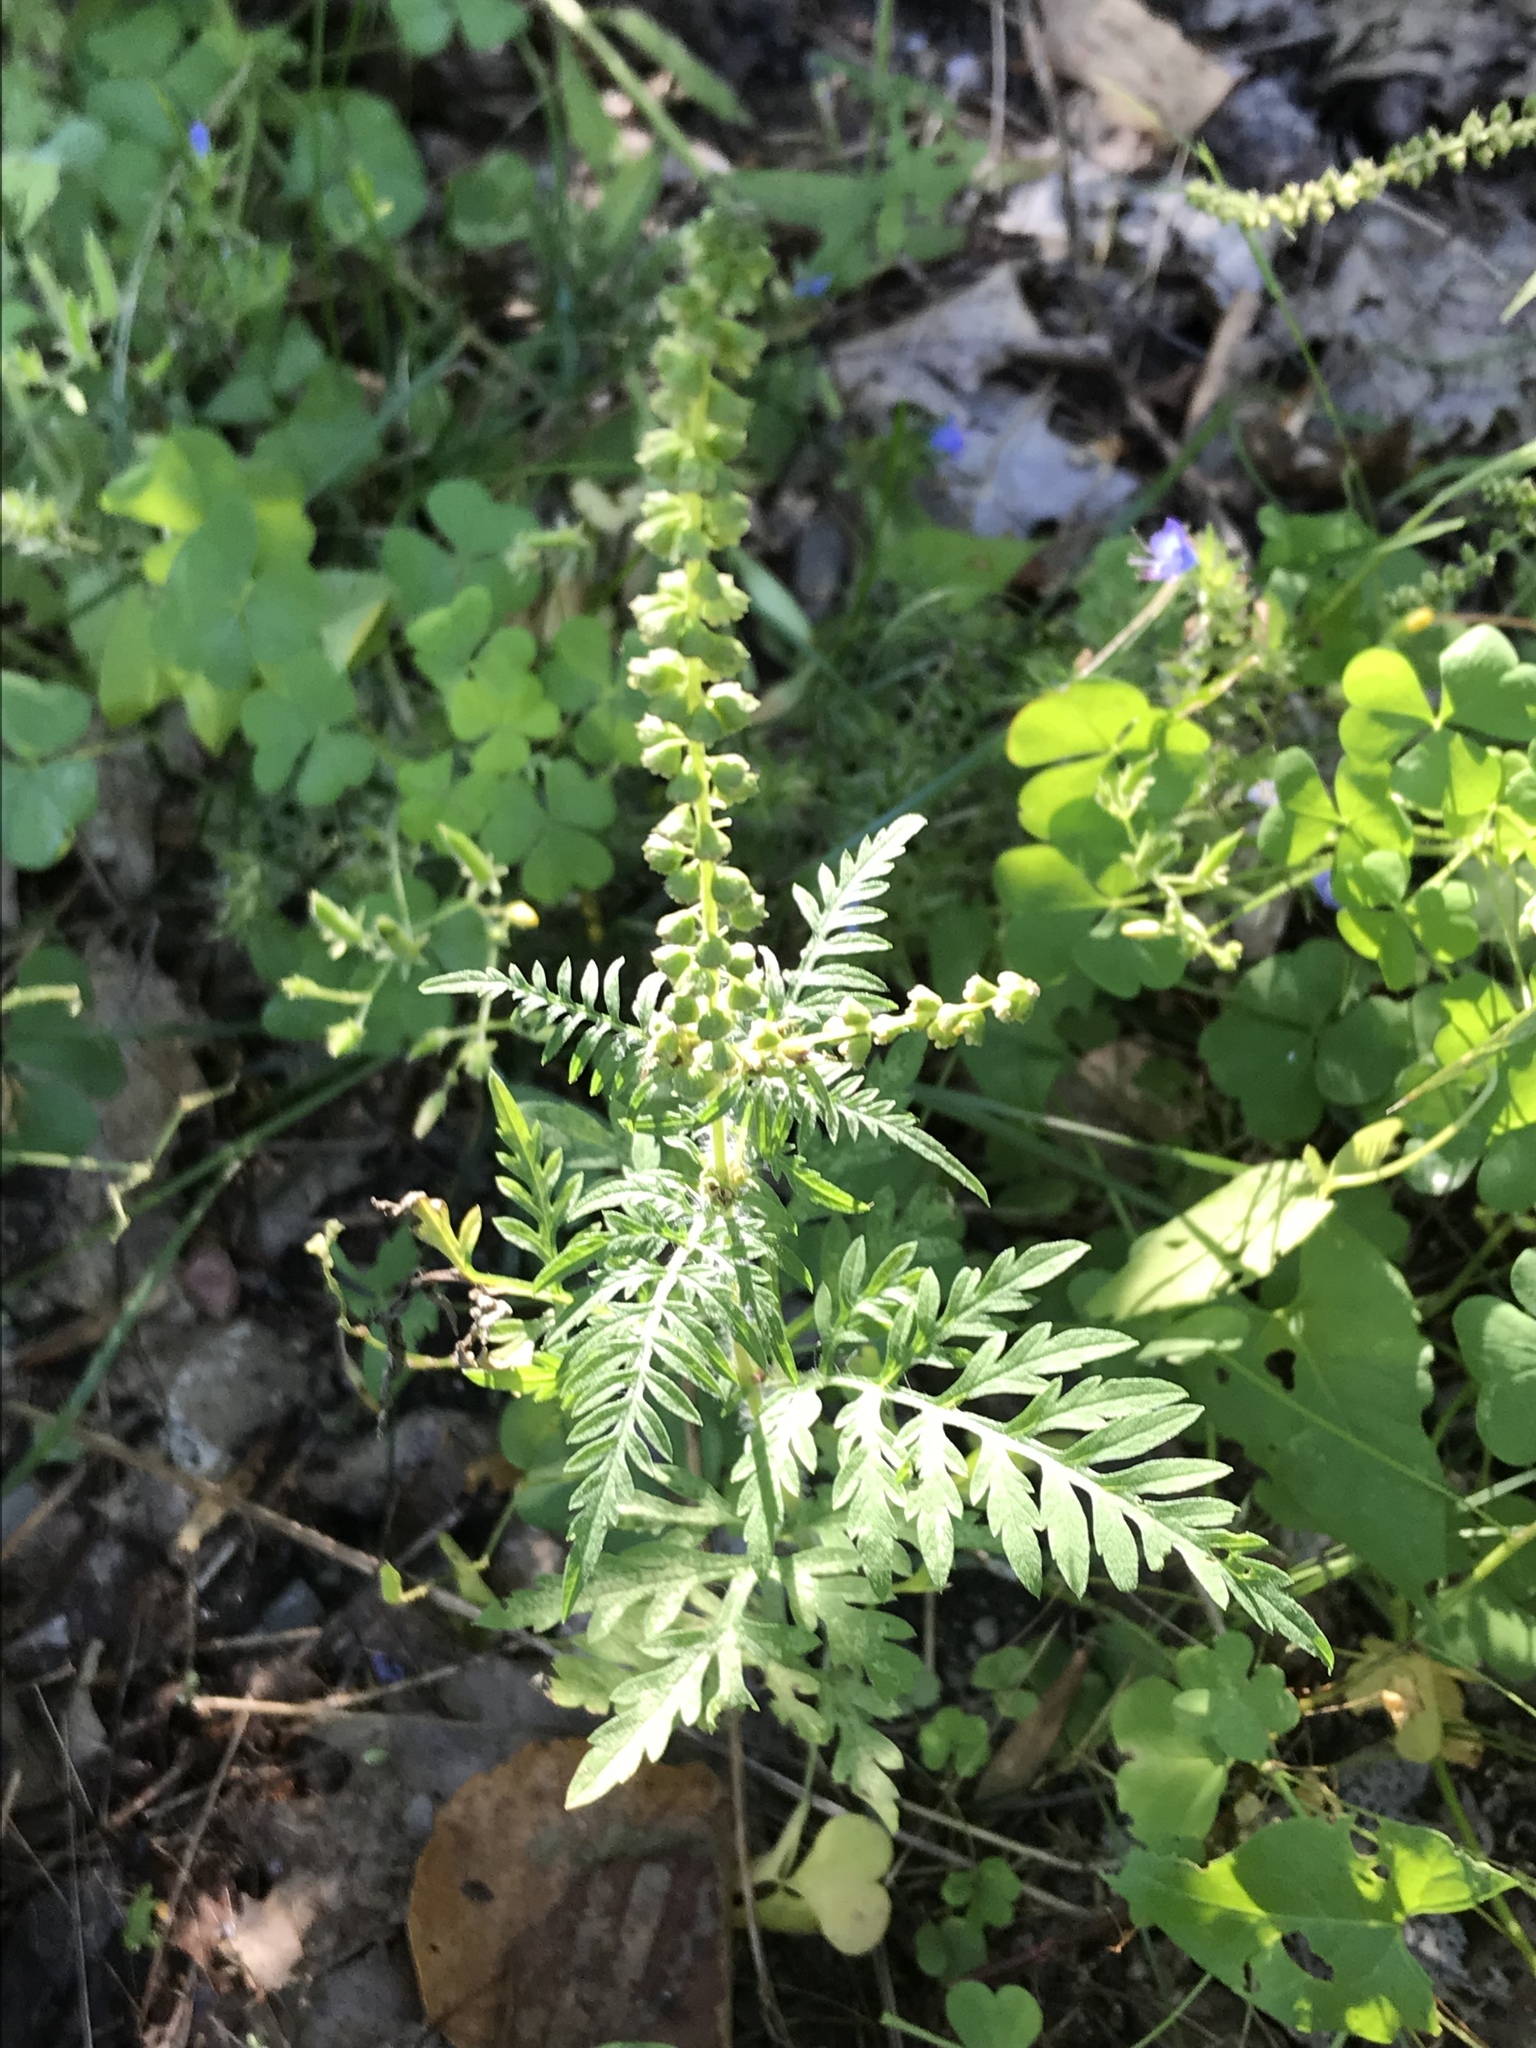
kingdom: Plantae
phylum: Tracheophyta
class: Magnoliopsida
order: Asterales
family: Asteraceae
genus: Ambrosia
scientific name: Ambrosia artemisiifolia
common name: Annual ragweed
